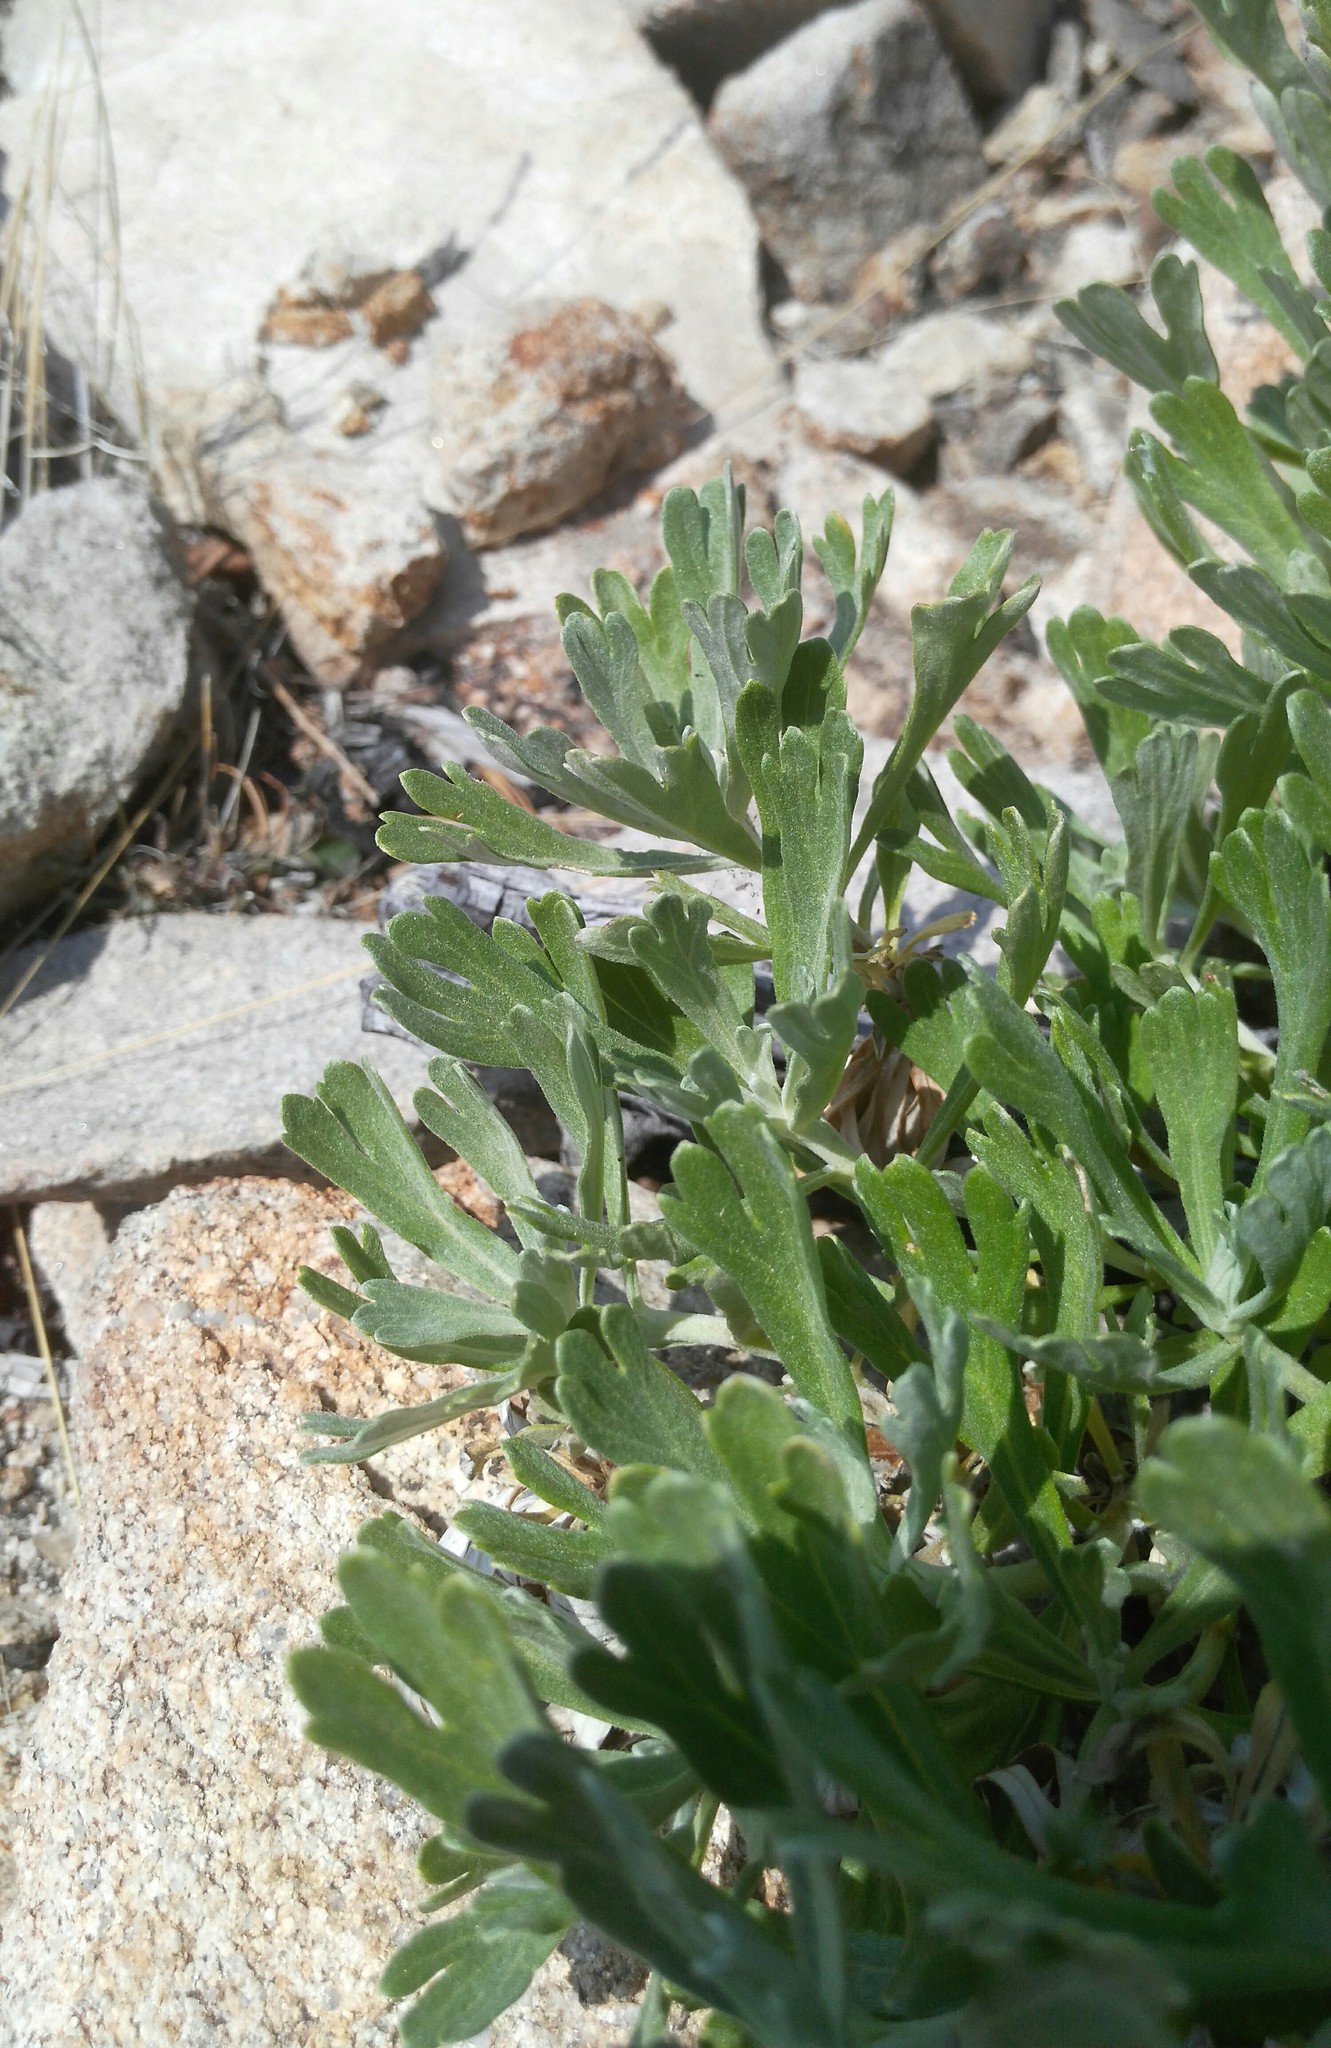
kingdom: Plantae
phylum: Tracheophyta
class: Magnoliopsida
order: Asterales
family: Asteraceae
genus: Artemisia
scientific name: Artemisia lagocephala
